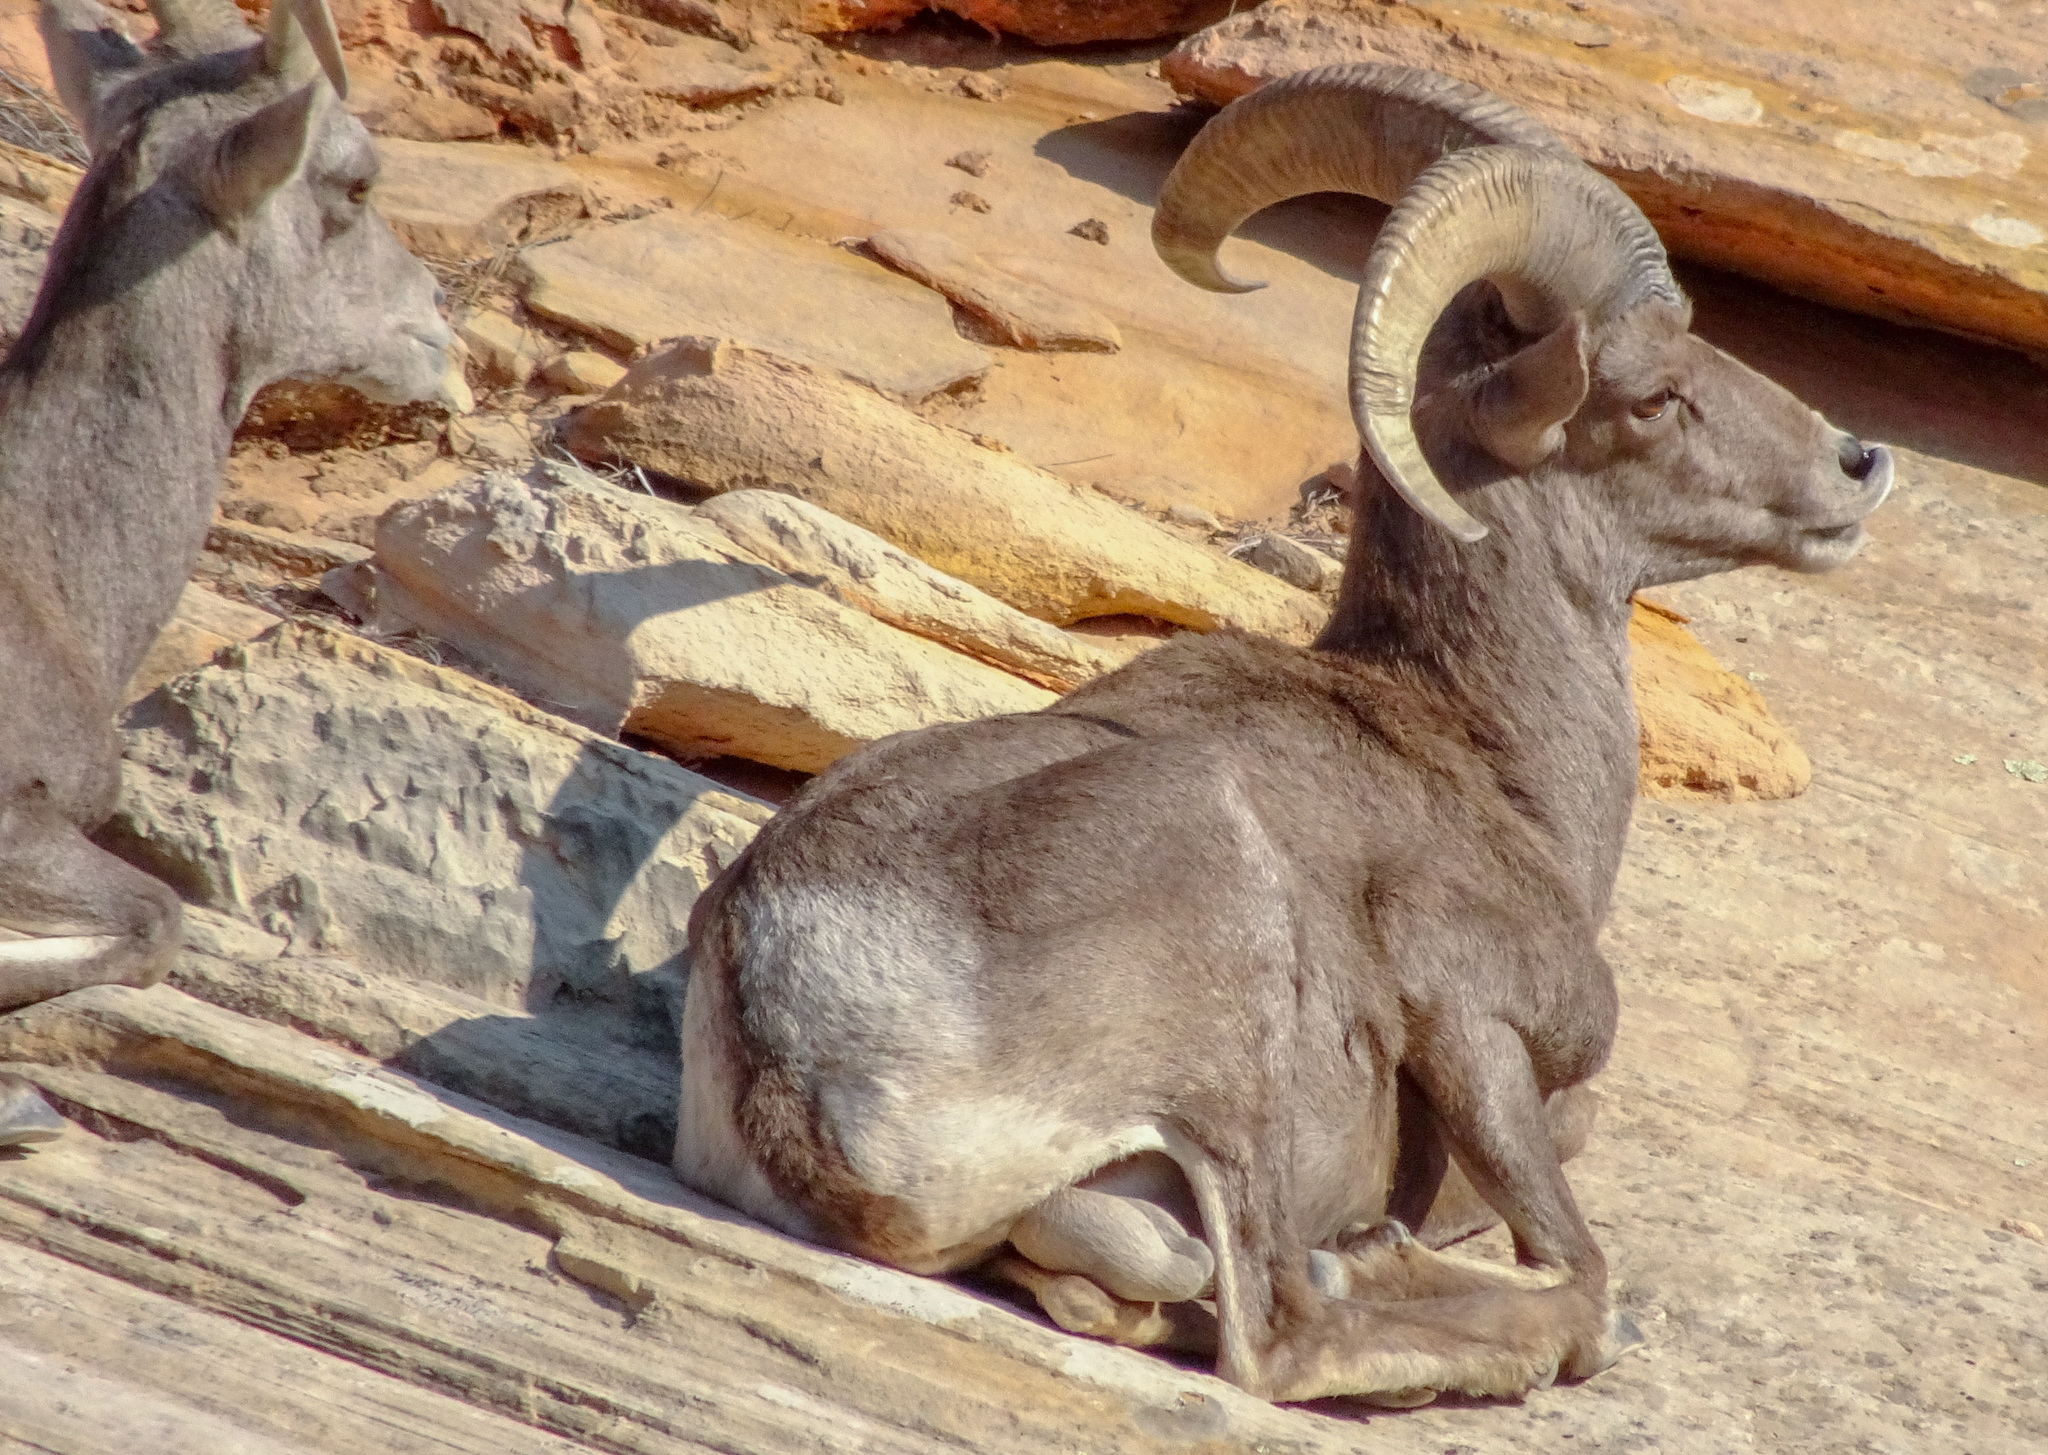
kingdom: Animalia
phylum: Chordata
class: Mammalia
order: Artiodactyla
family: Bovidae
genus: Ovis
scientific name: Ovis canadensis
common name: Bighorn sheep
